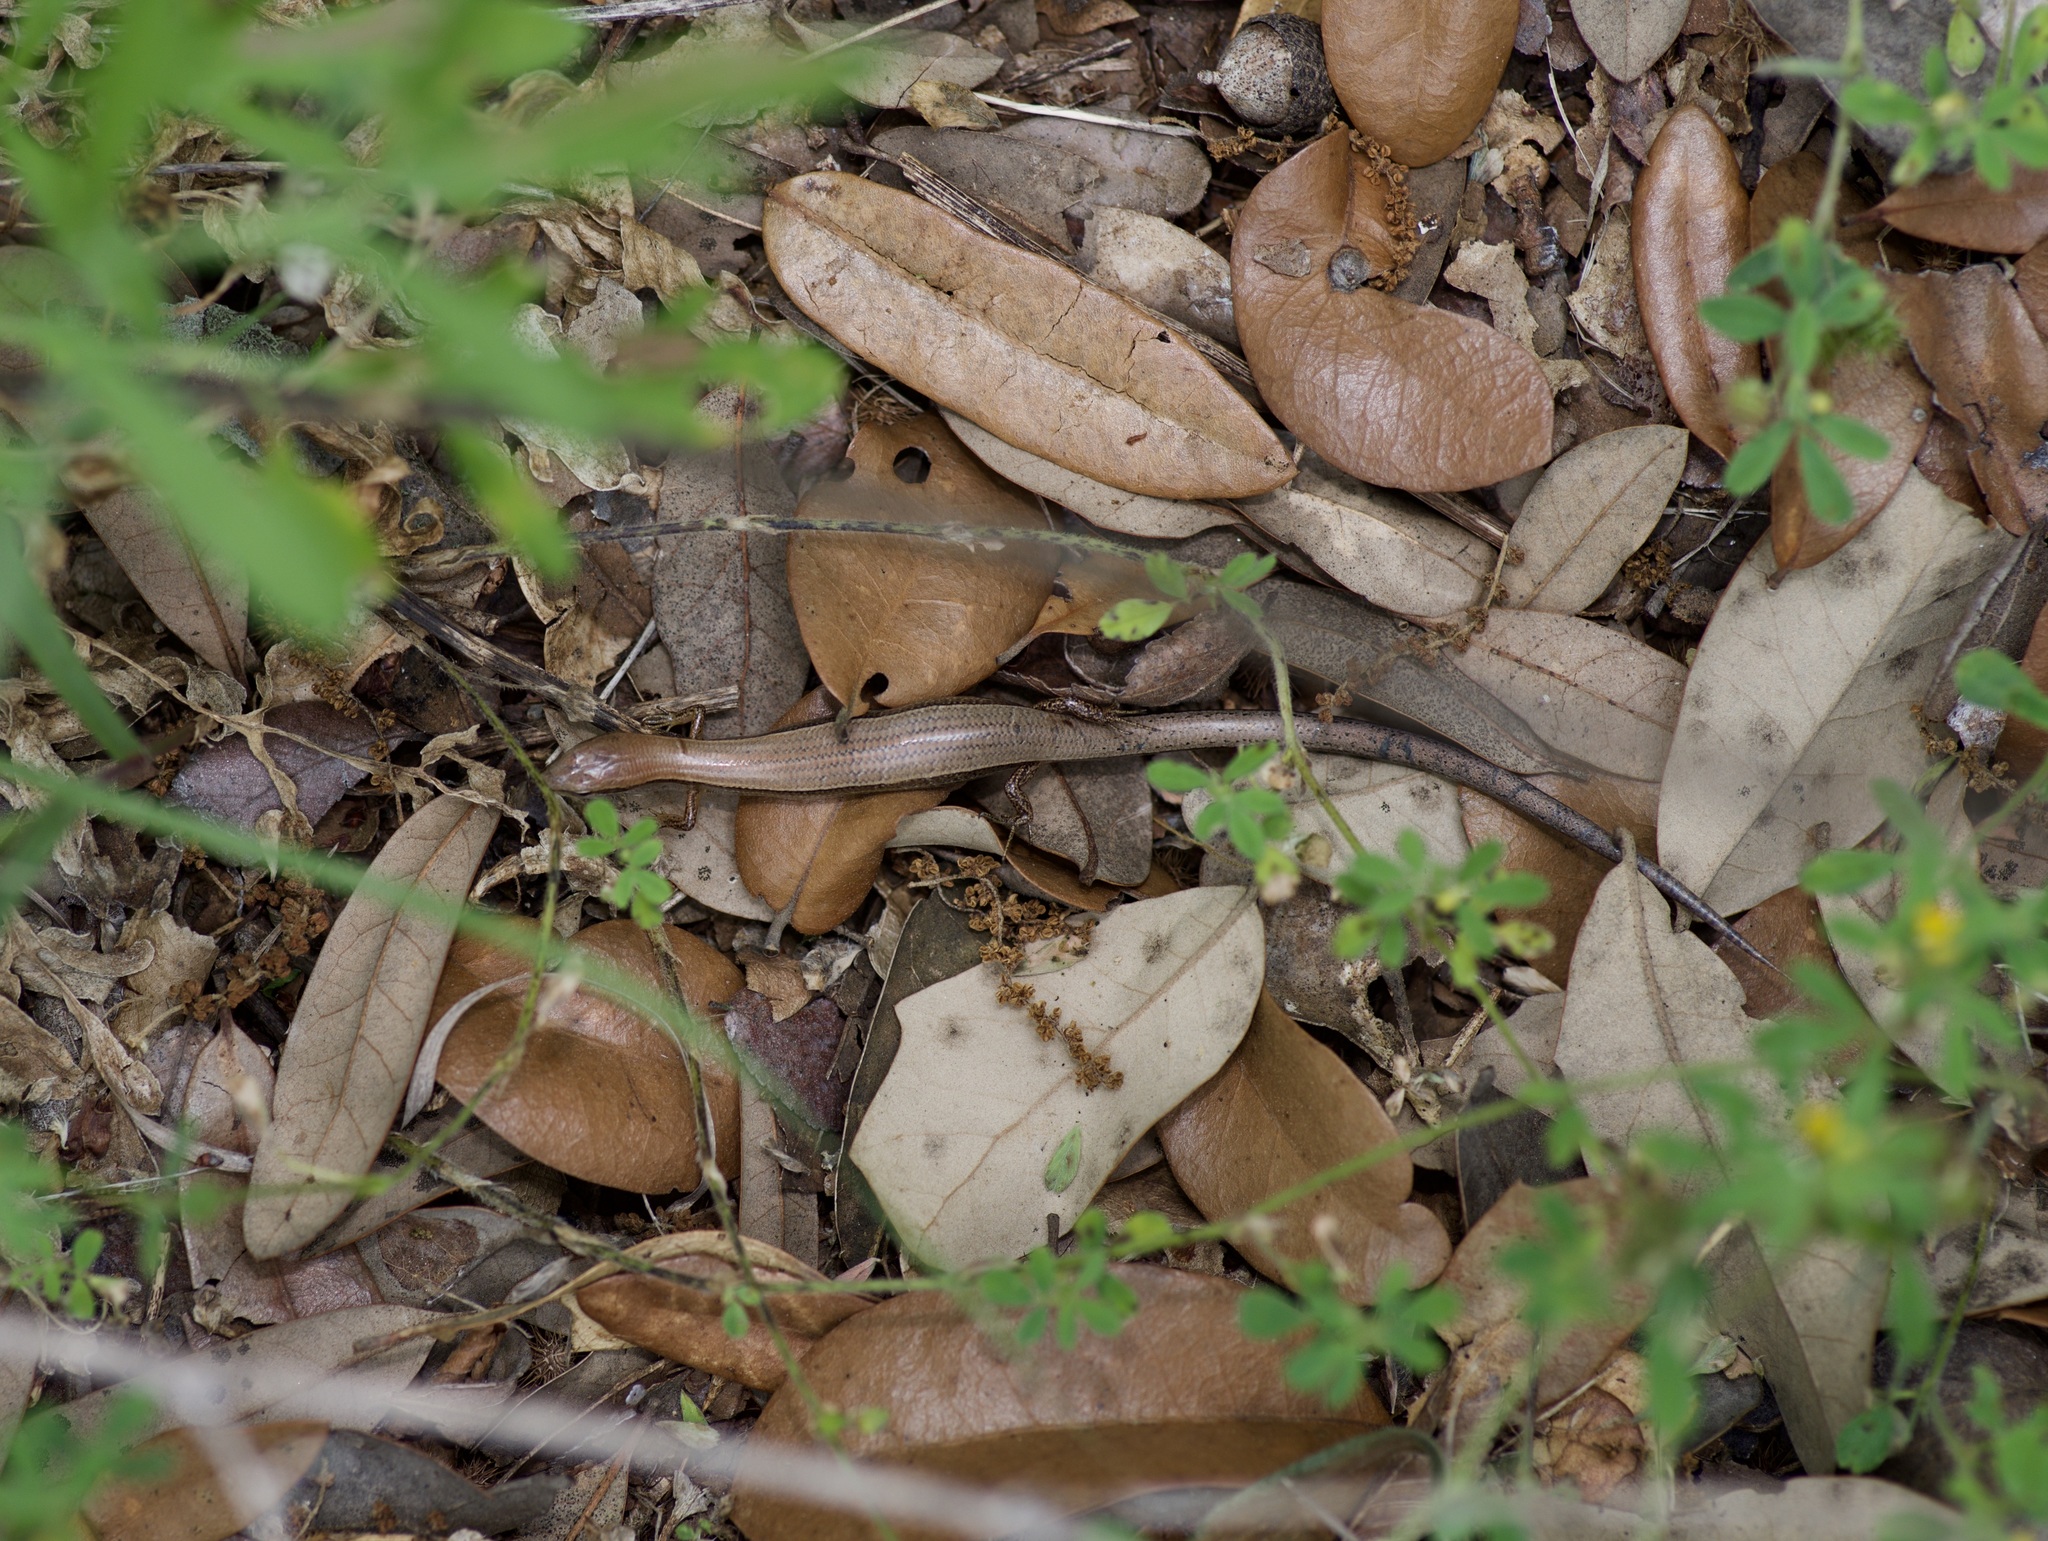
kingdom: Animalia
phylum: Chordata
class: Squamata
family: Scincidae
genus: Scincella
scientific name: Scincella lateralis
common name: Ground skink
